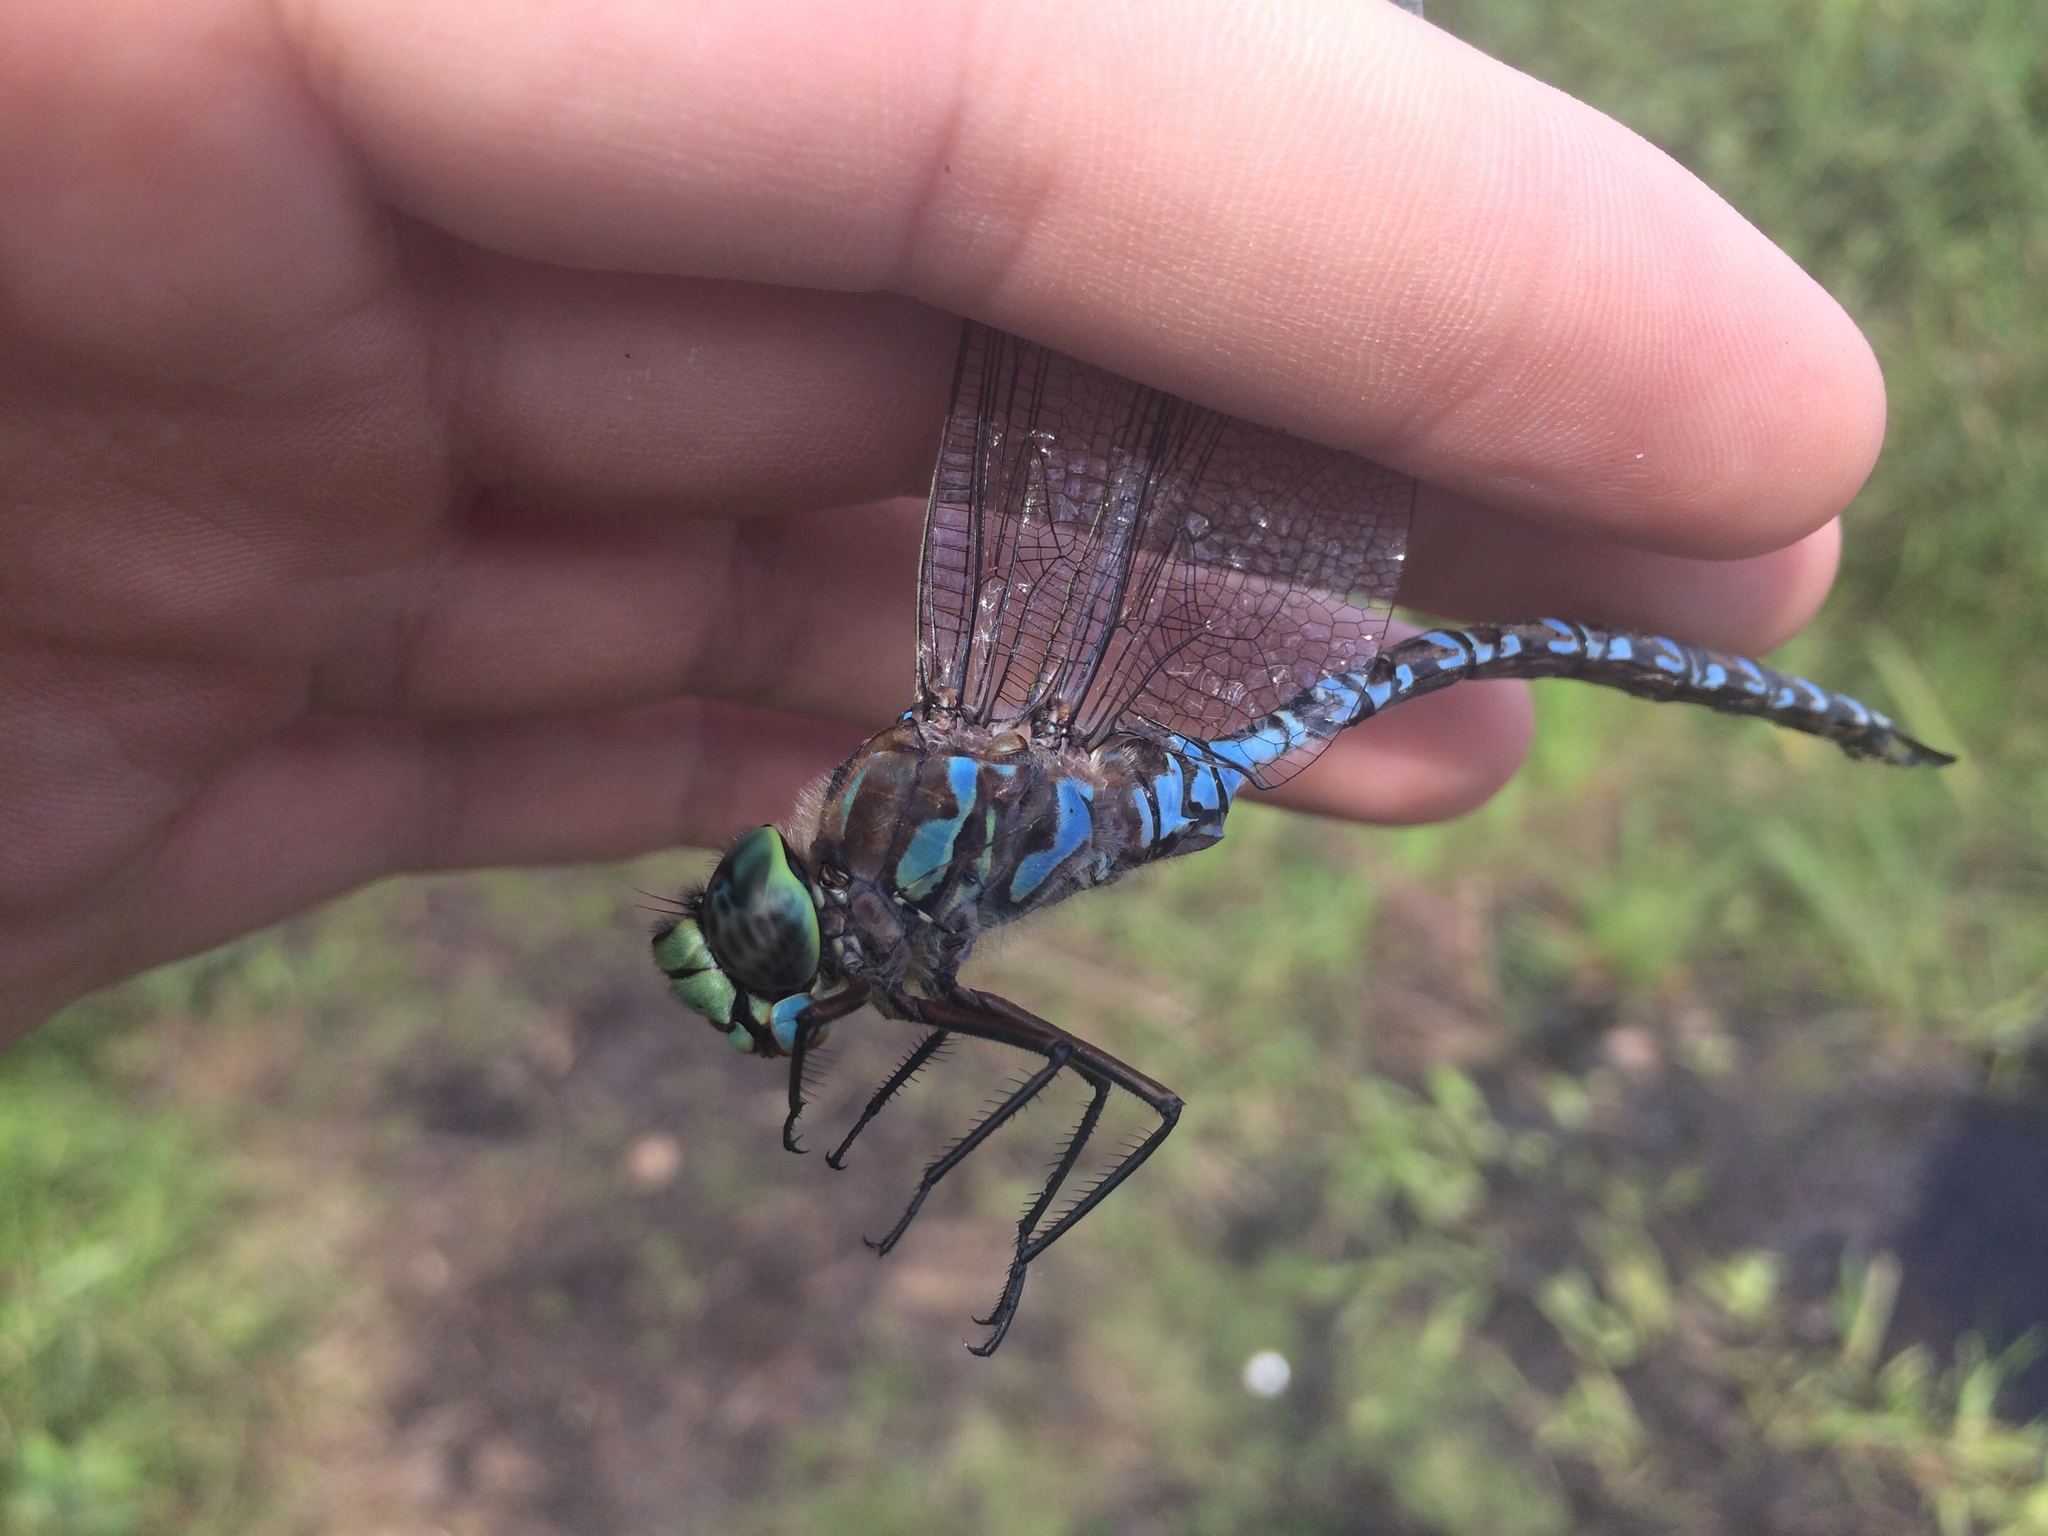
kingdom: Animalia
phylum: Arthropoda
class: Insecta
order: Odonata
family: Aeshnidae
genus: Aeshna
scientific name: Aeshna eremita
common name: Lake darner
